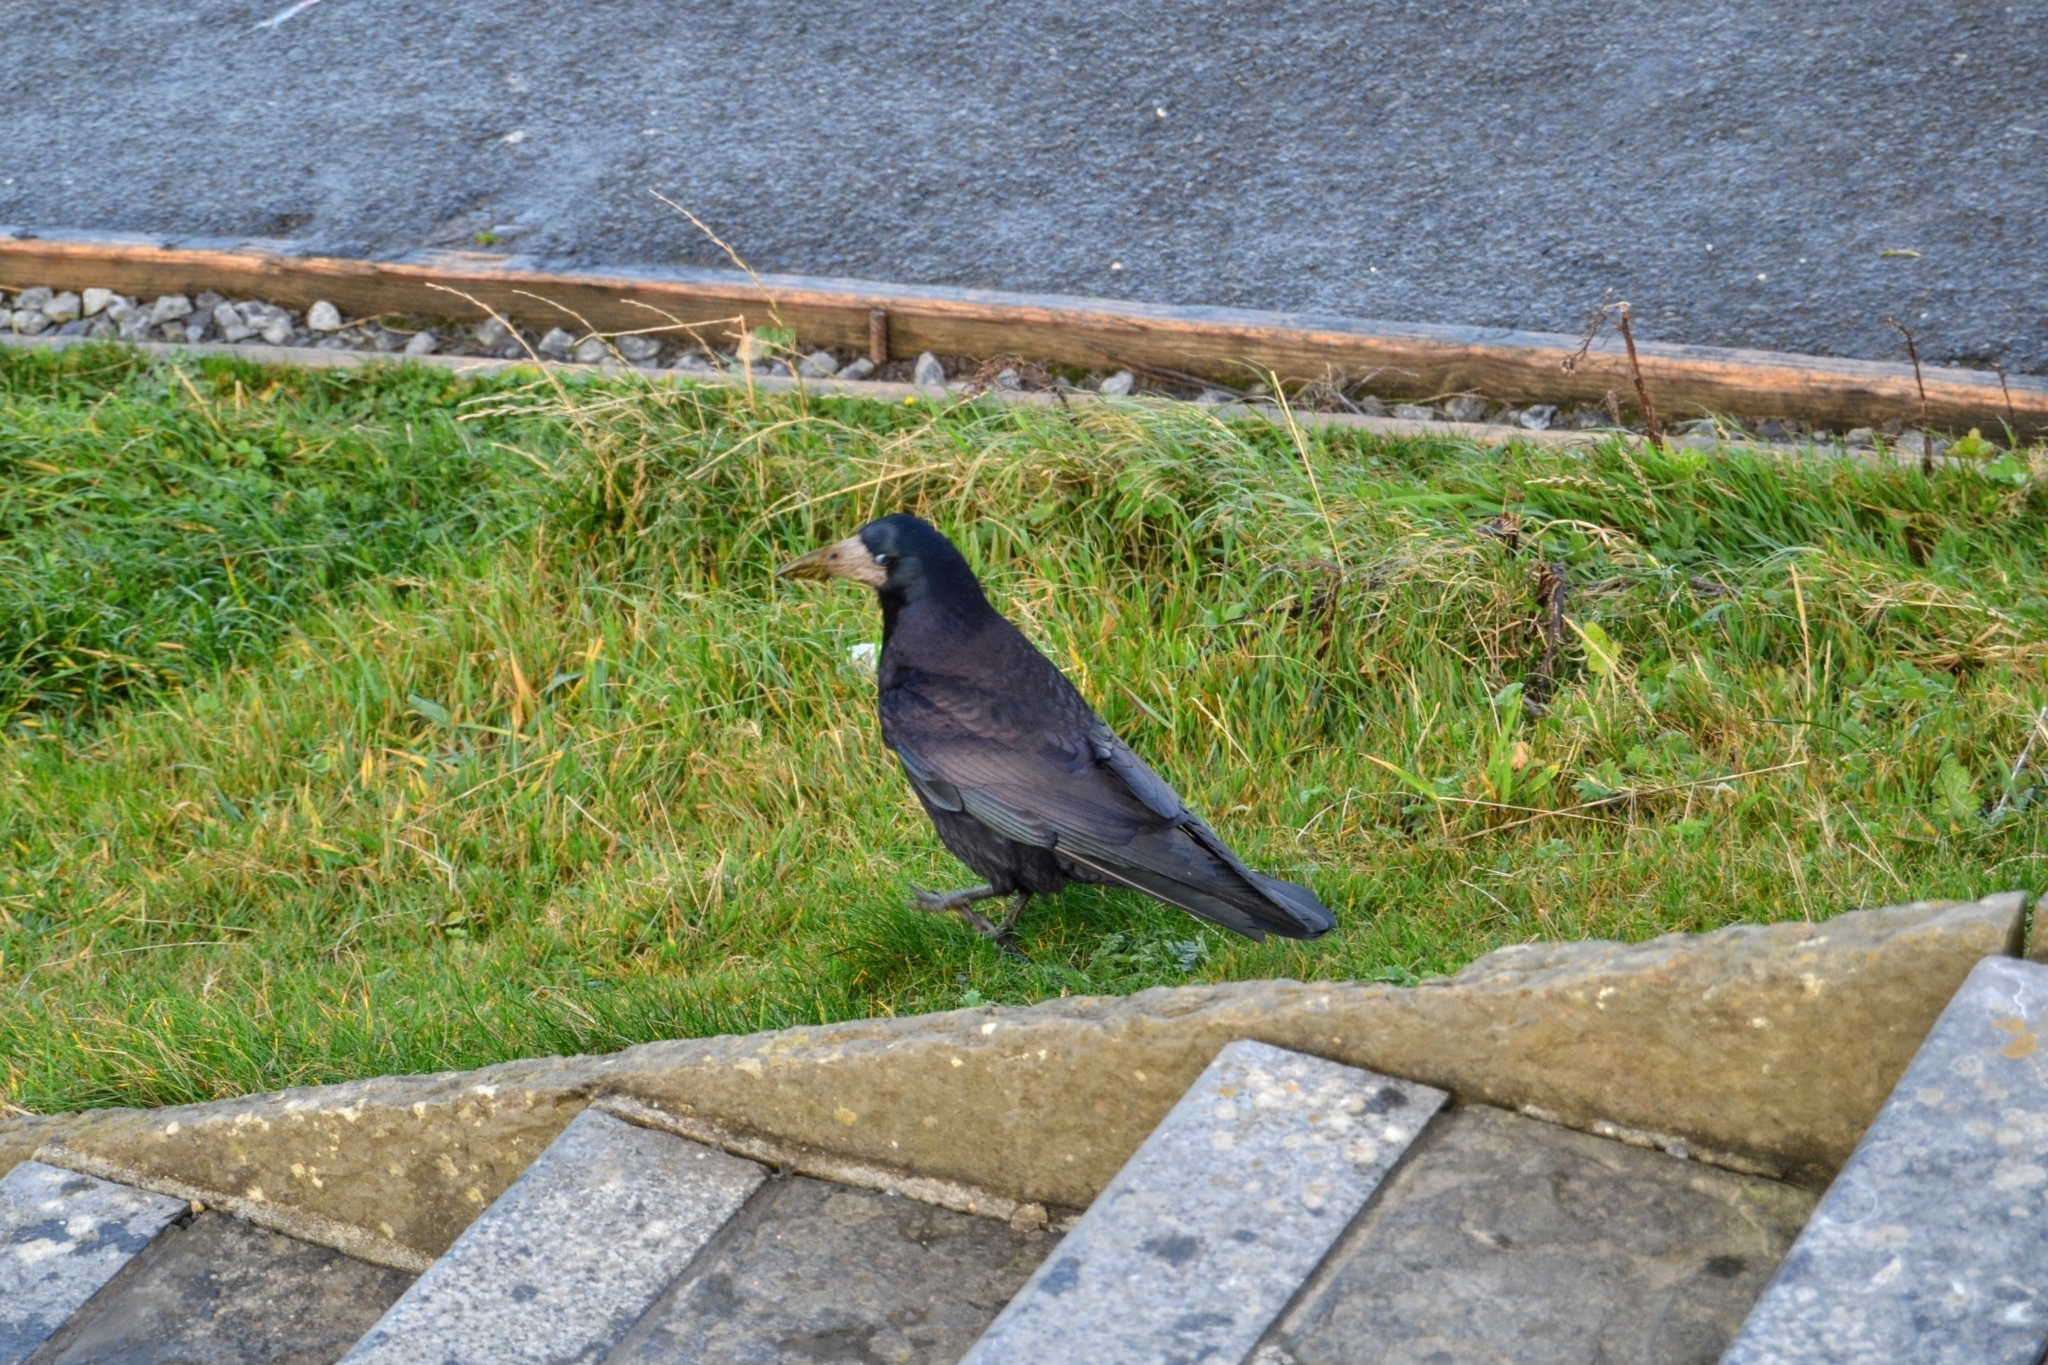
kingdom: Animalia
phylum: Chordata
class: Aves
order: Passeriformes
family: Corvidae
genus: Corvus
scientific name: Corvus frugilegus
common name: Rook
